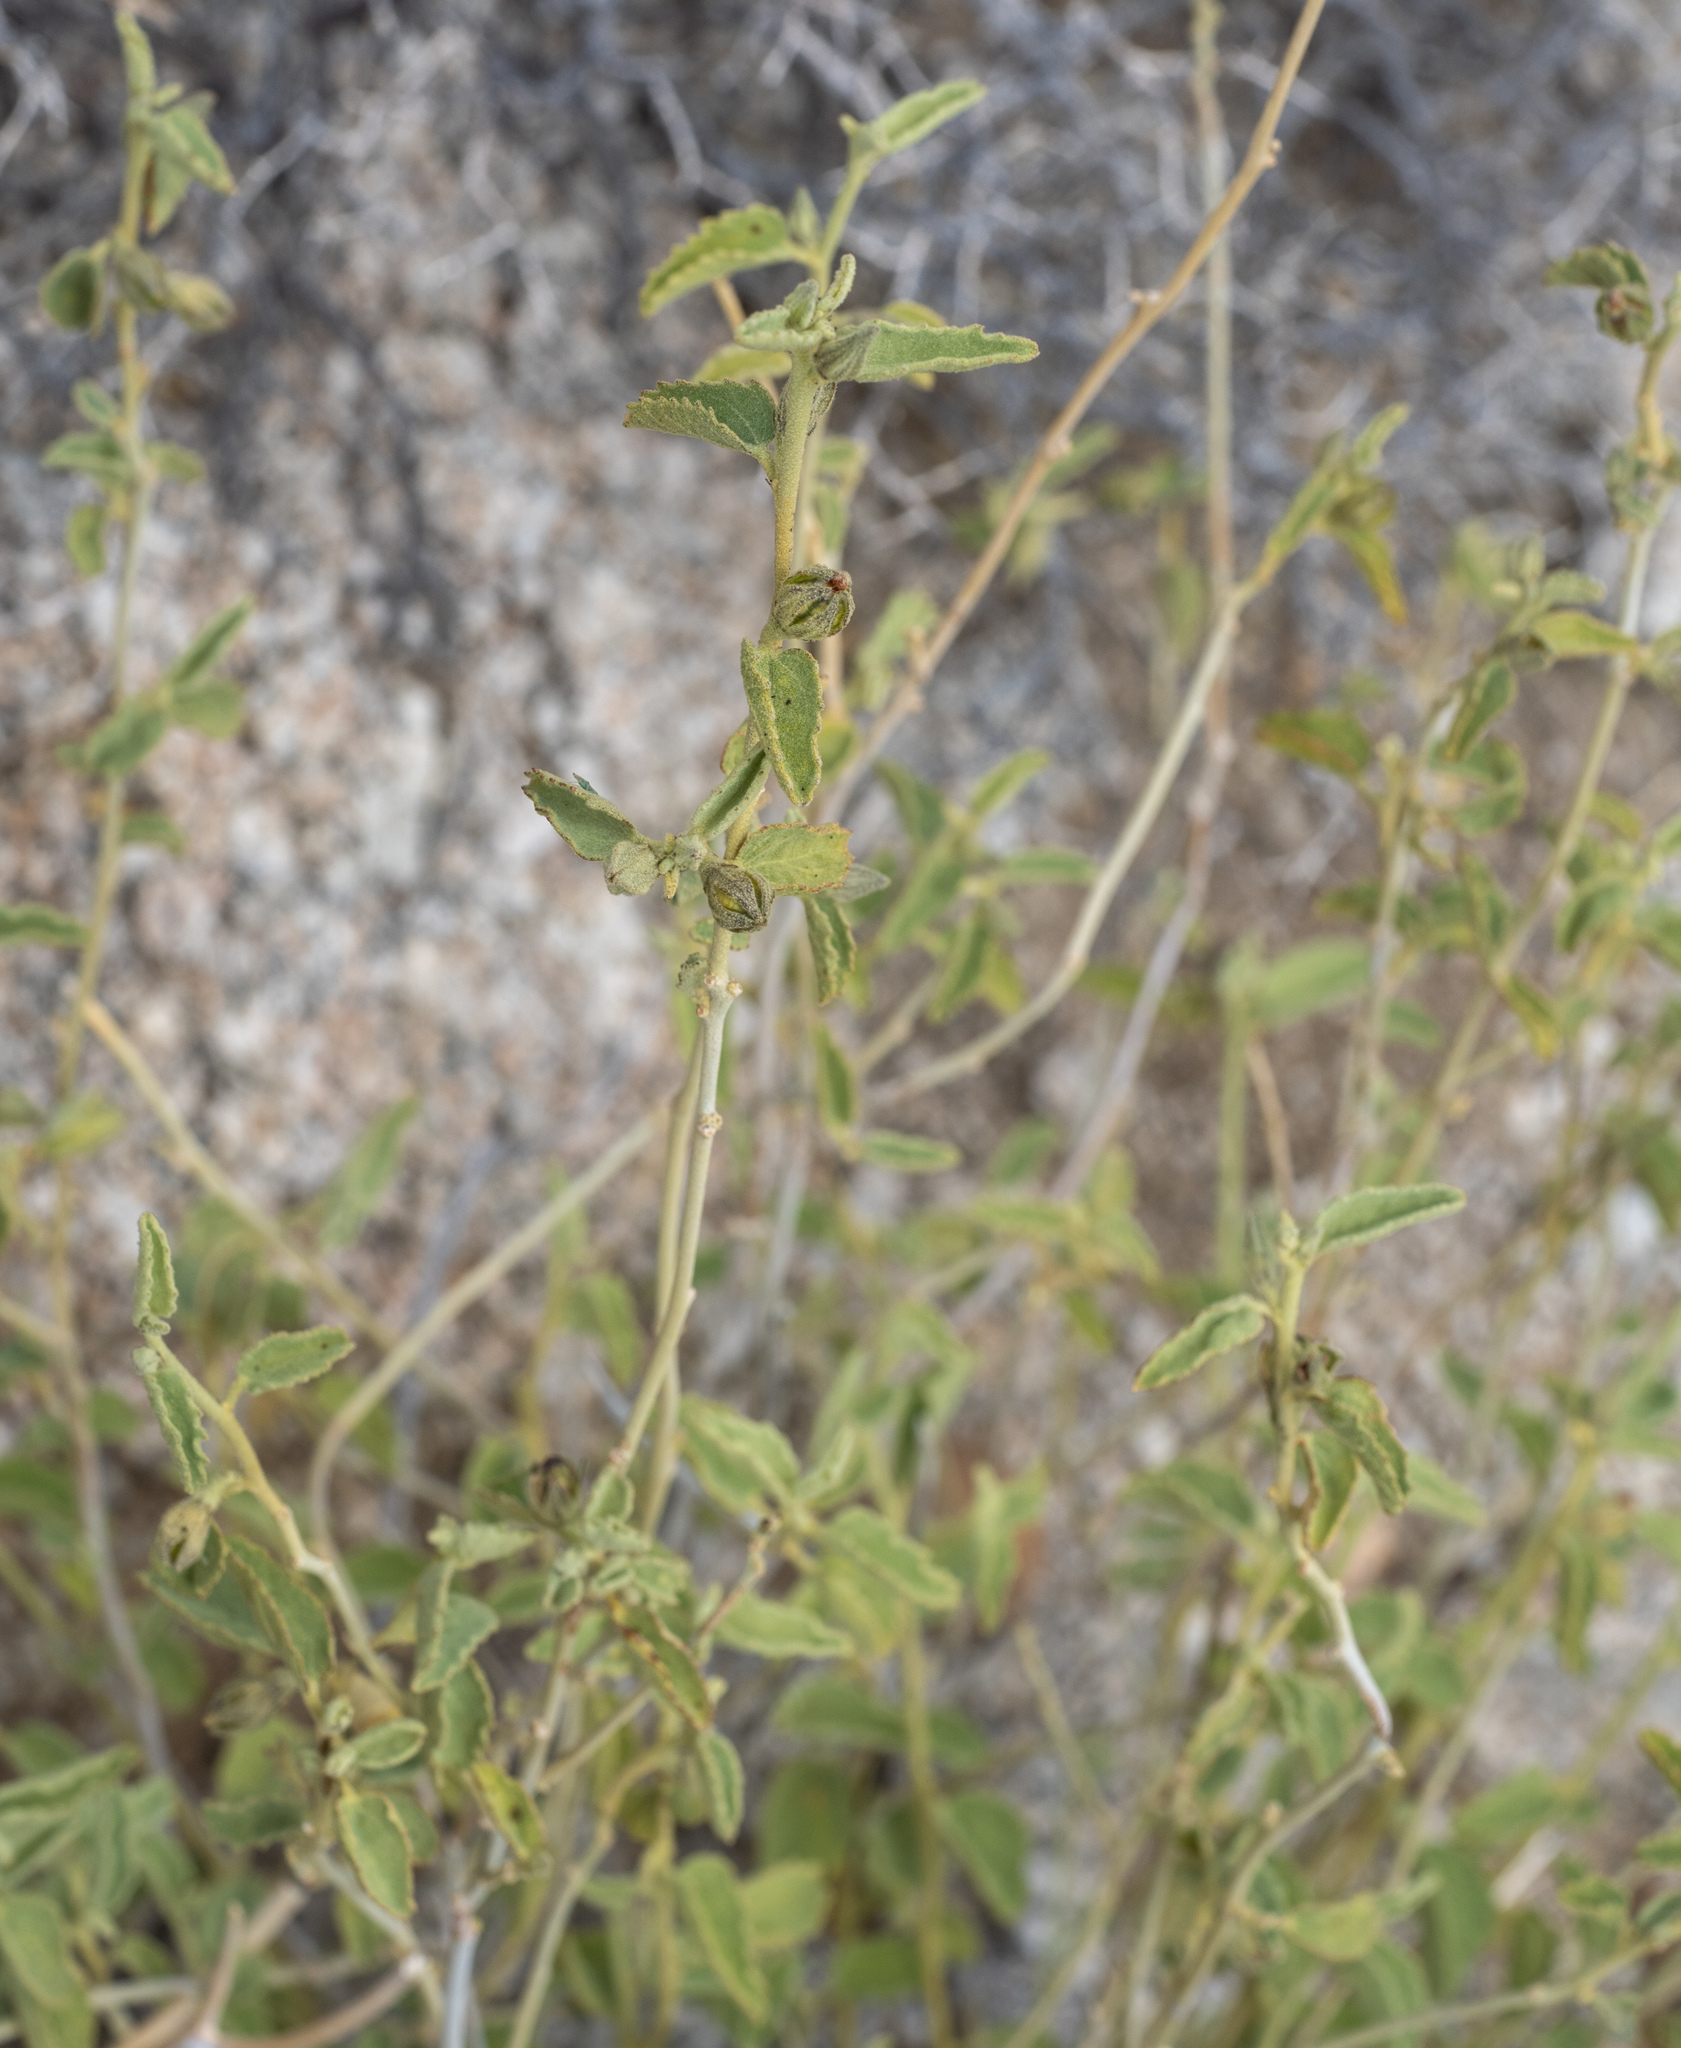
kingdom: Plantae
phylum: Tracheophyta
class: Magnoliopsida
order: Malvales
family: Malvaceae
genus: Hibiscus
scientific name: Hibiscus denudatus
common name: Paleface
